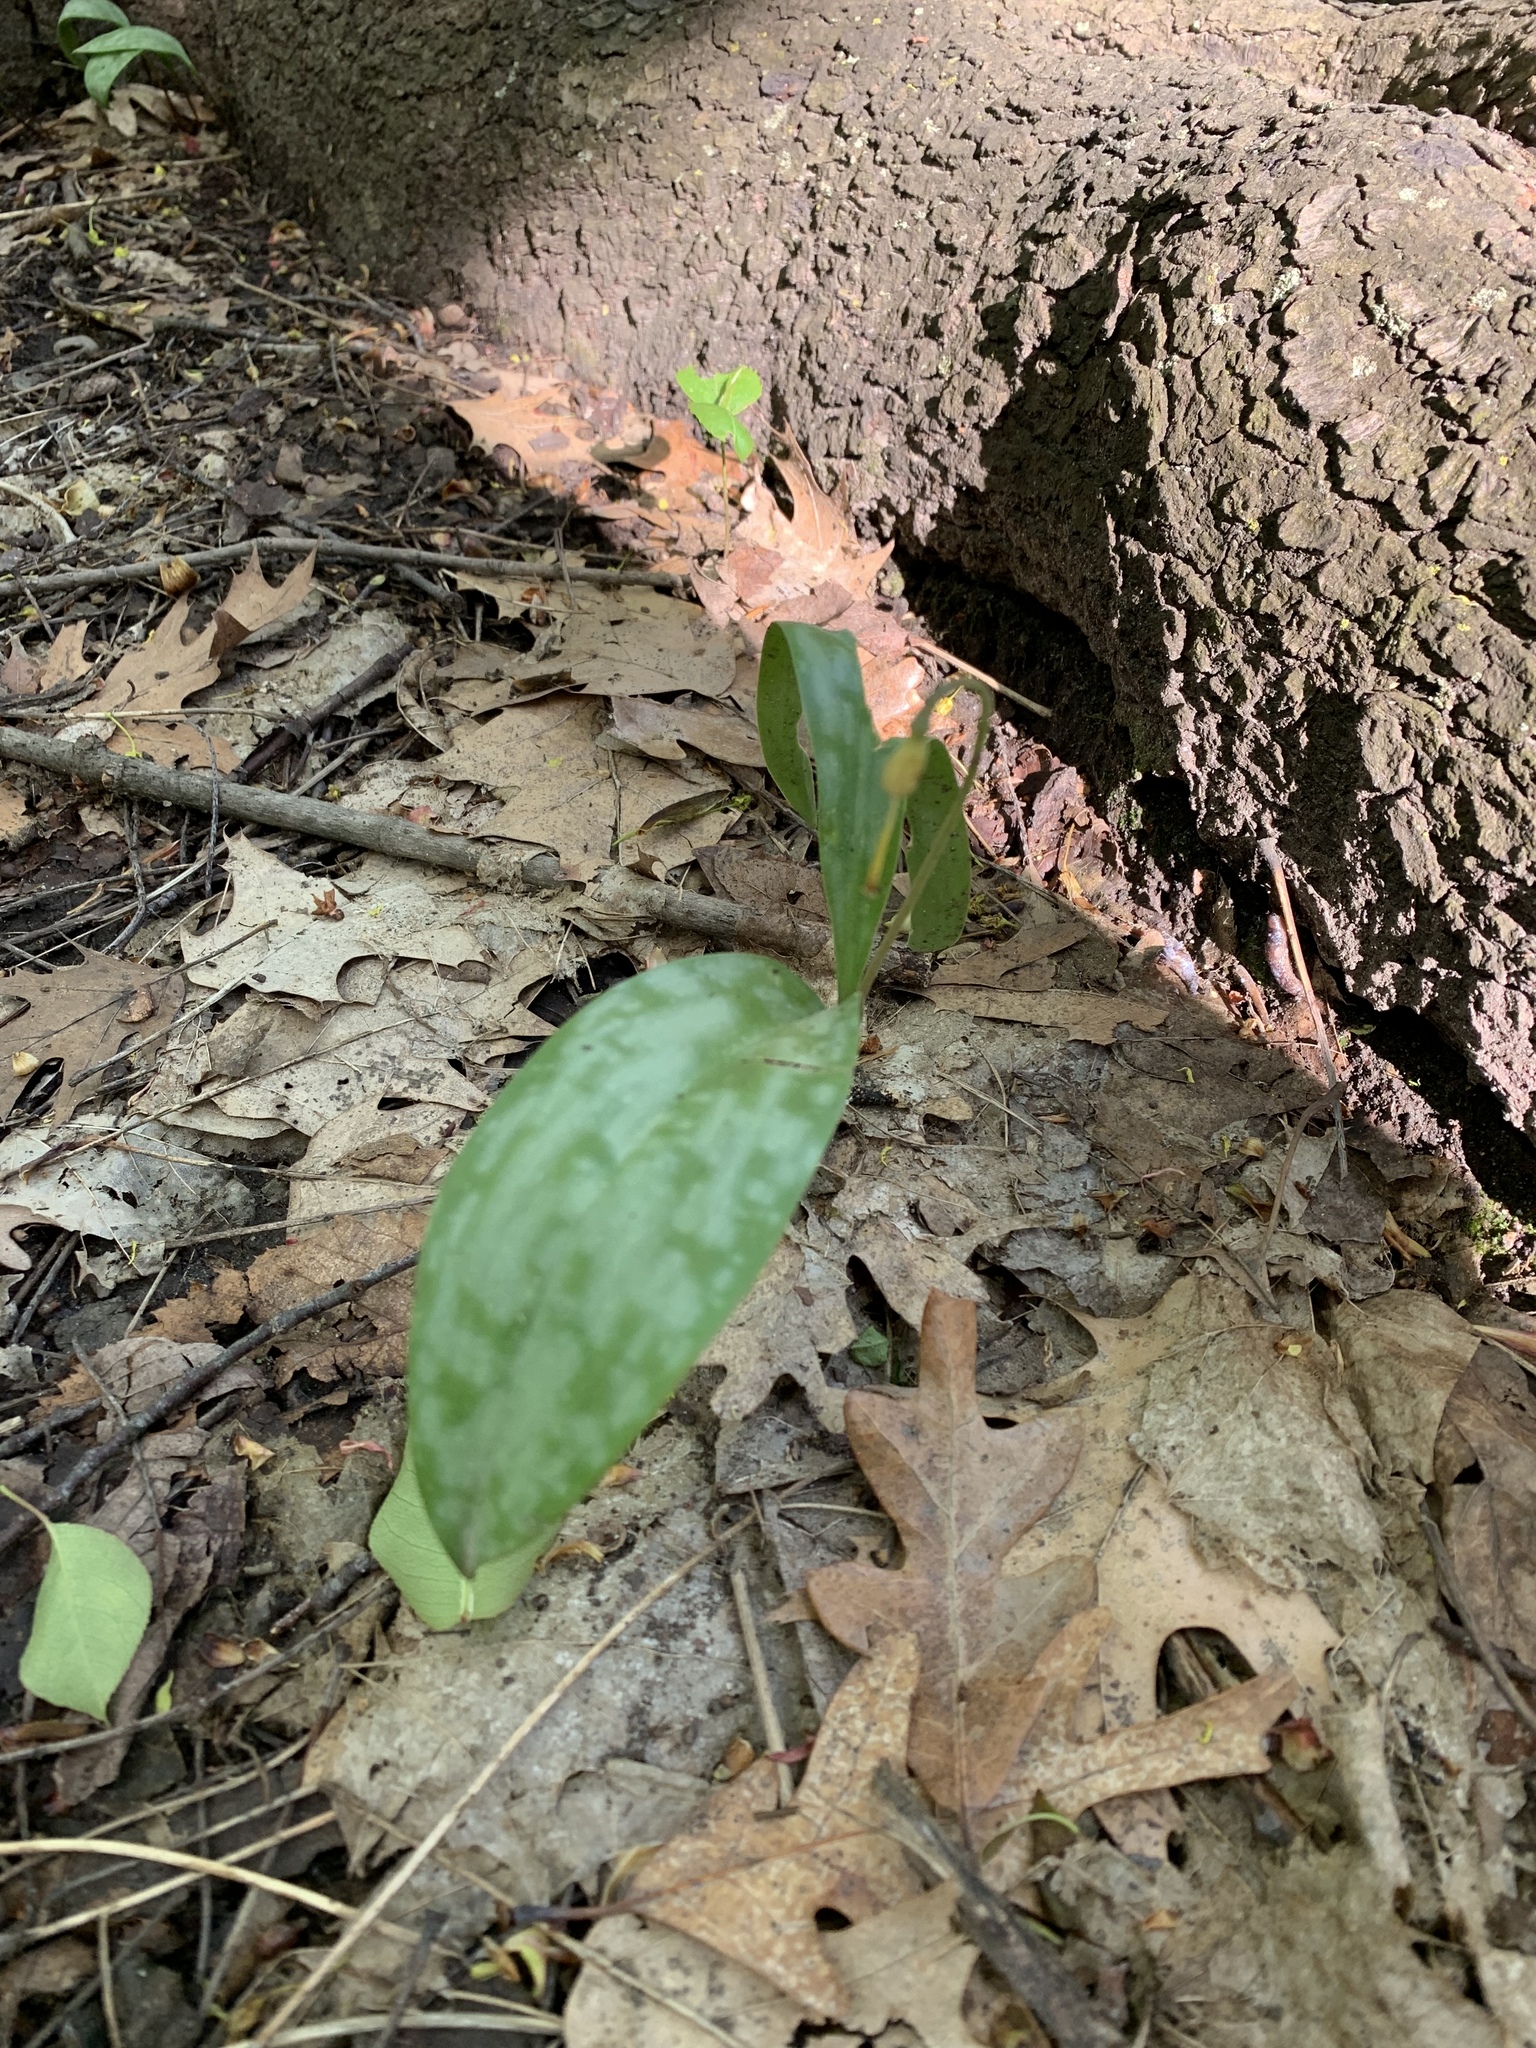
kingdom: Plantae
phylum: Tracheophyta
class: Liliopsida
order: Liliales
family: Liliaceae
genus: Erythronium
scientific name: Erythronium americanum
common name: Yellow adder's-tongue
